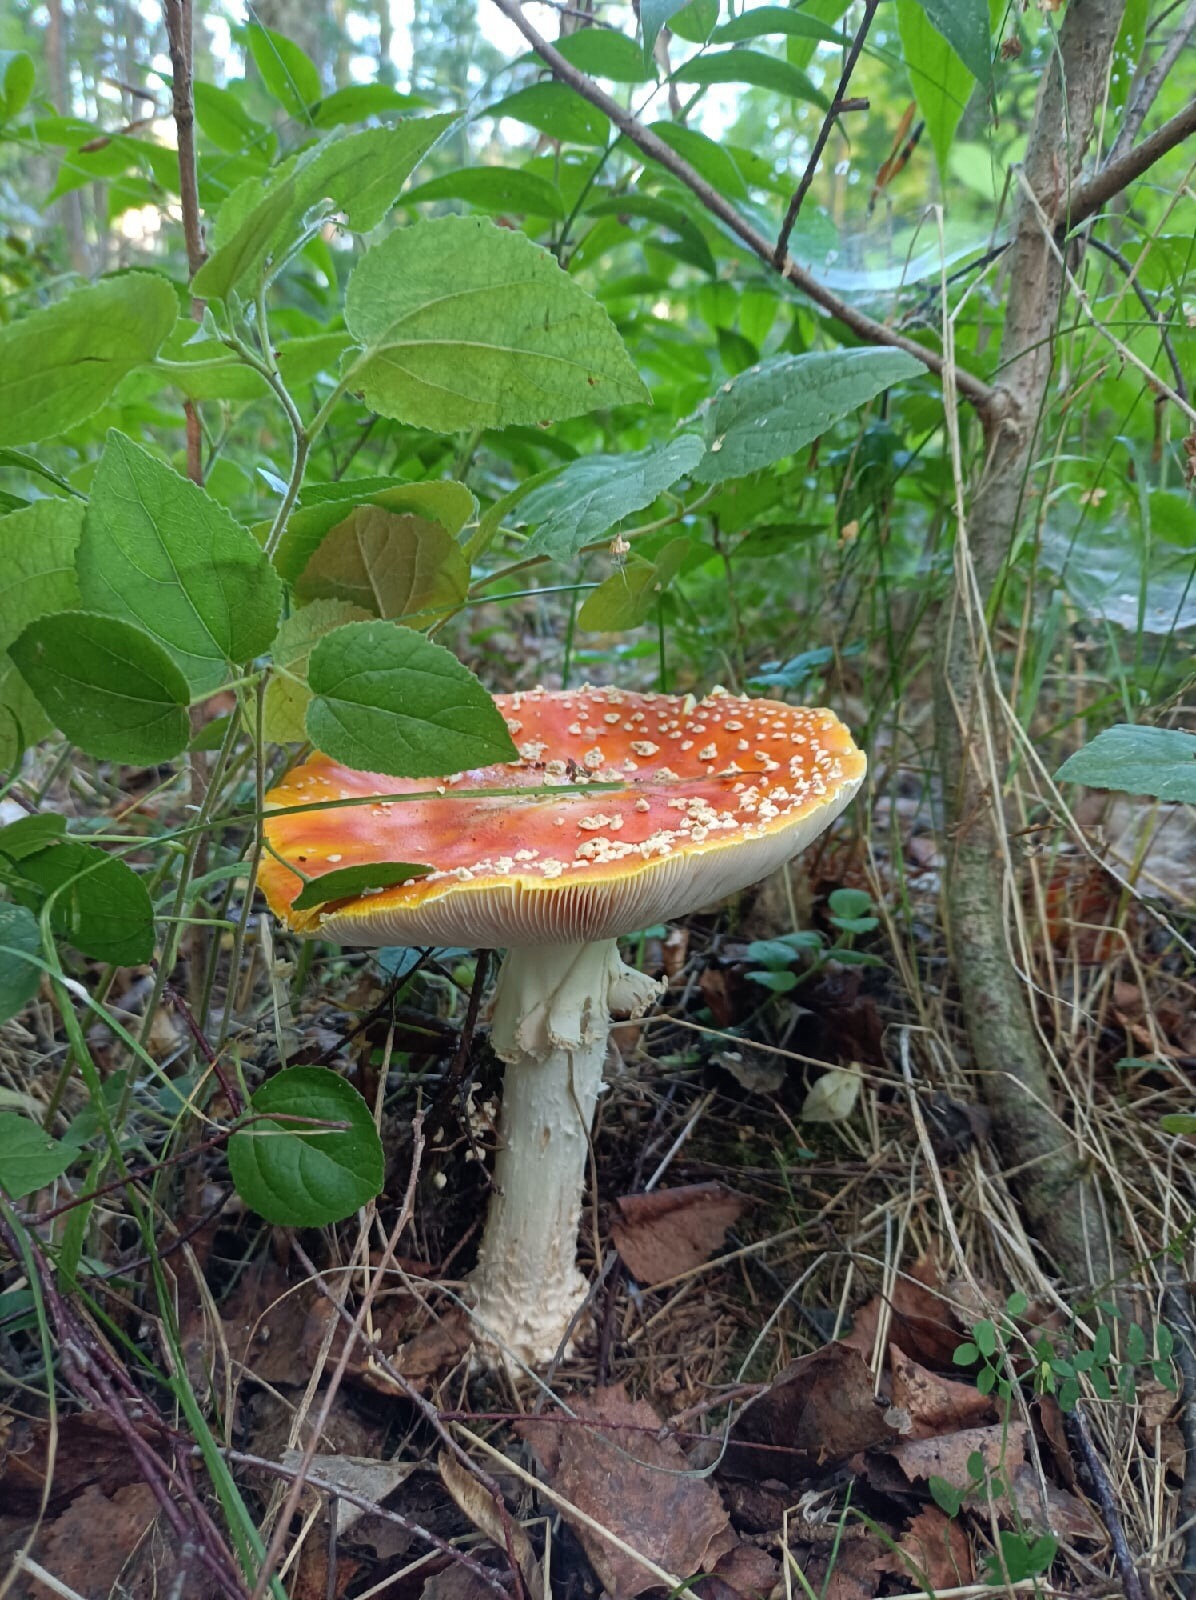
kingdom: Fungi
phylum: Basidiomycota
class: Agaricomycetes
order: Agaricales
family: Amanitaceae
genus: Amanita
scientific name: Amanita muscaria
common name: Fly agaric
